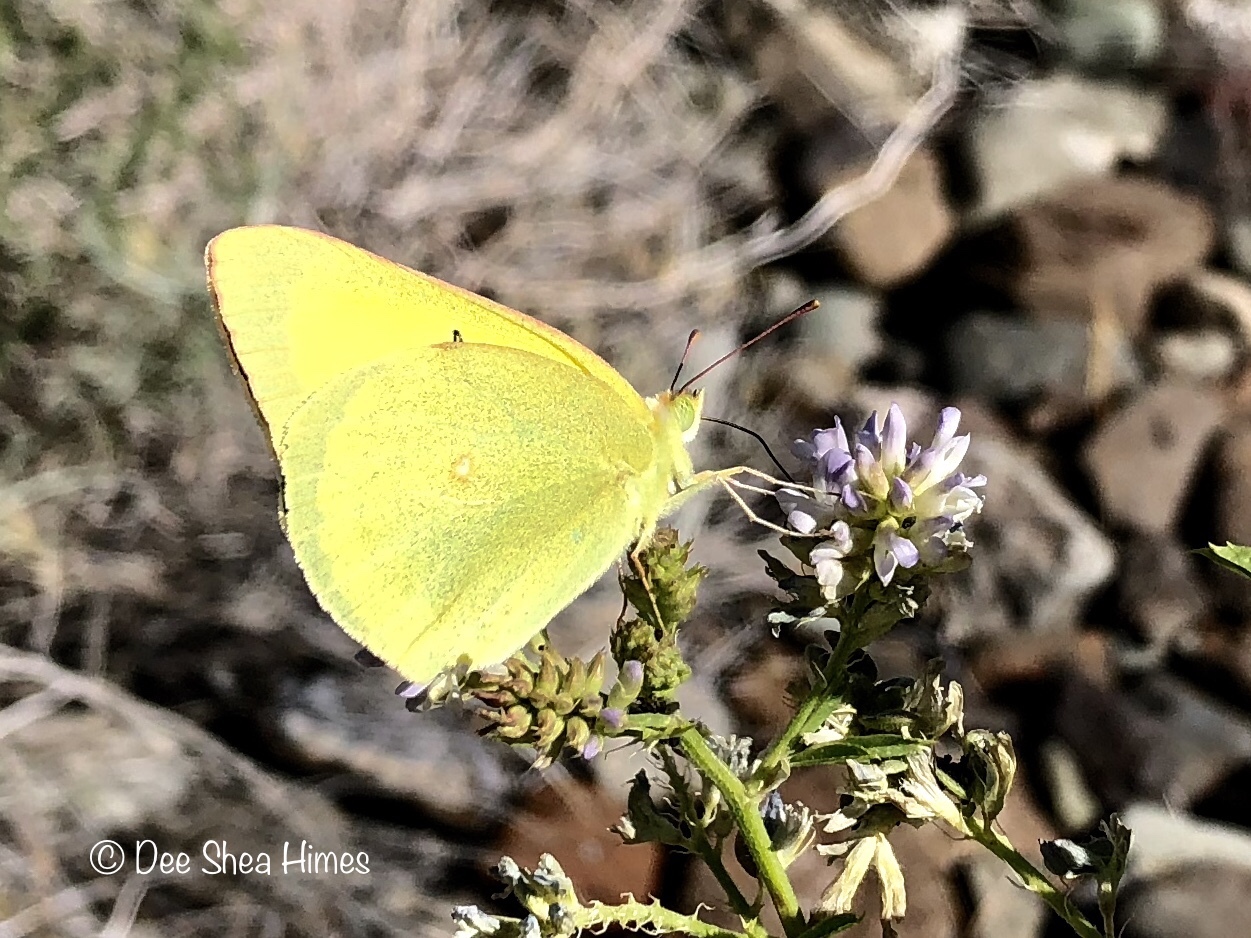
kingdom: Animalia
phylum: Arthropoda
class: Insecta
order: Lepidoptera
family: Pieridae
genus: Colias
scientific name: Colias alexandra
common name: Alexandra sulphur
